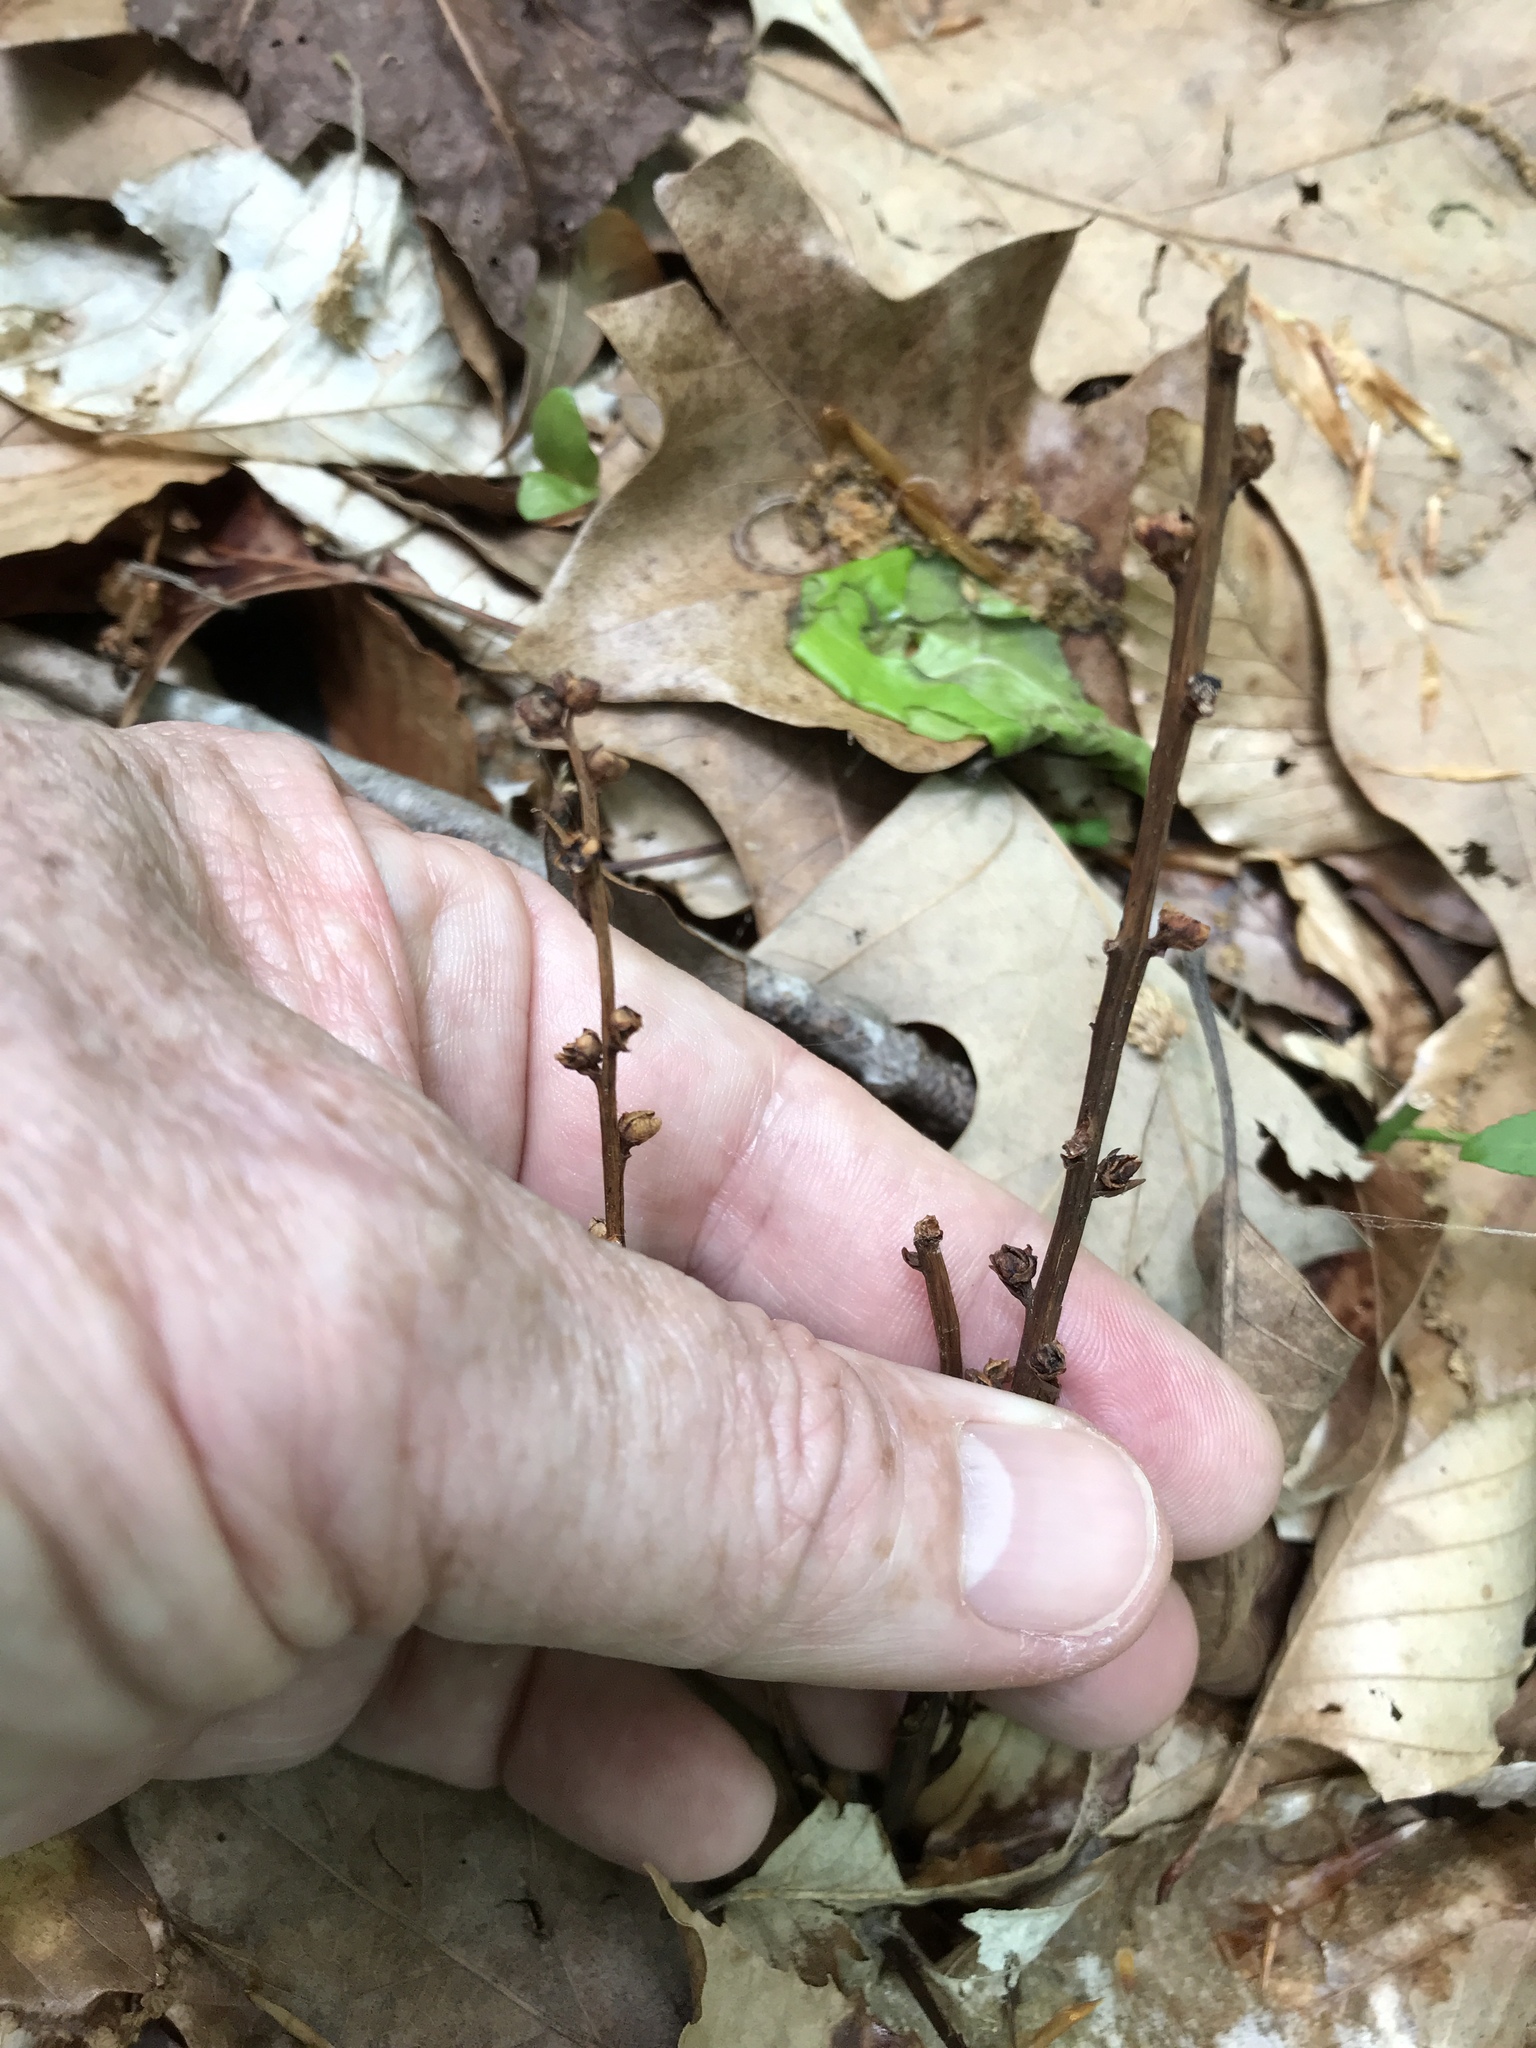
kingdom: Plantae
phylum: Tracheophyta
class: Magnoliopsida
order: Lamiales
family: Orobanchaceae
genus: Epifagus
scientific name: Epifagus virginiana
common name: Beechdrops
